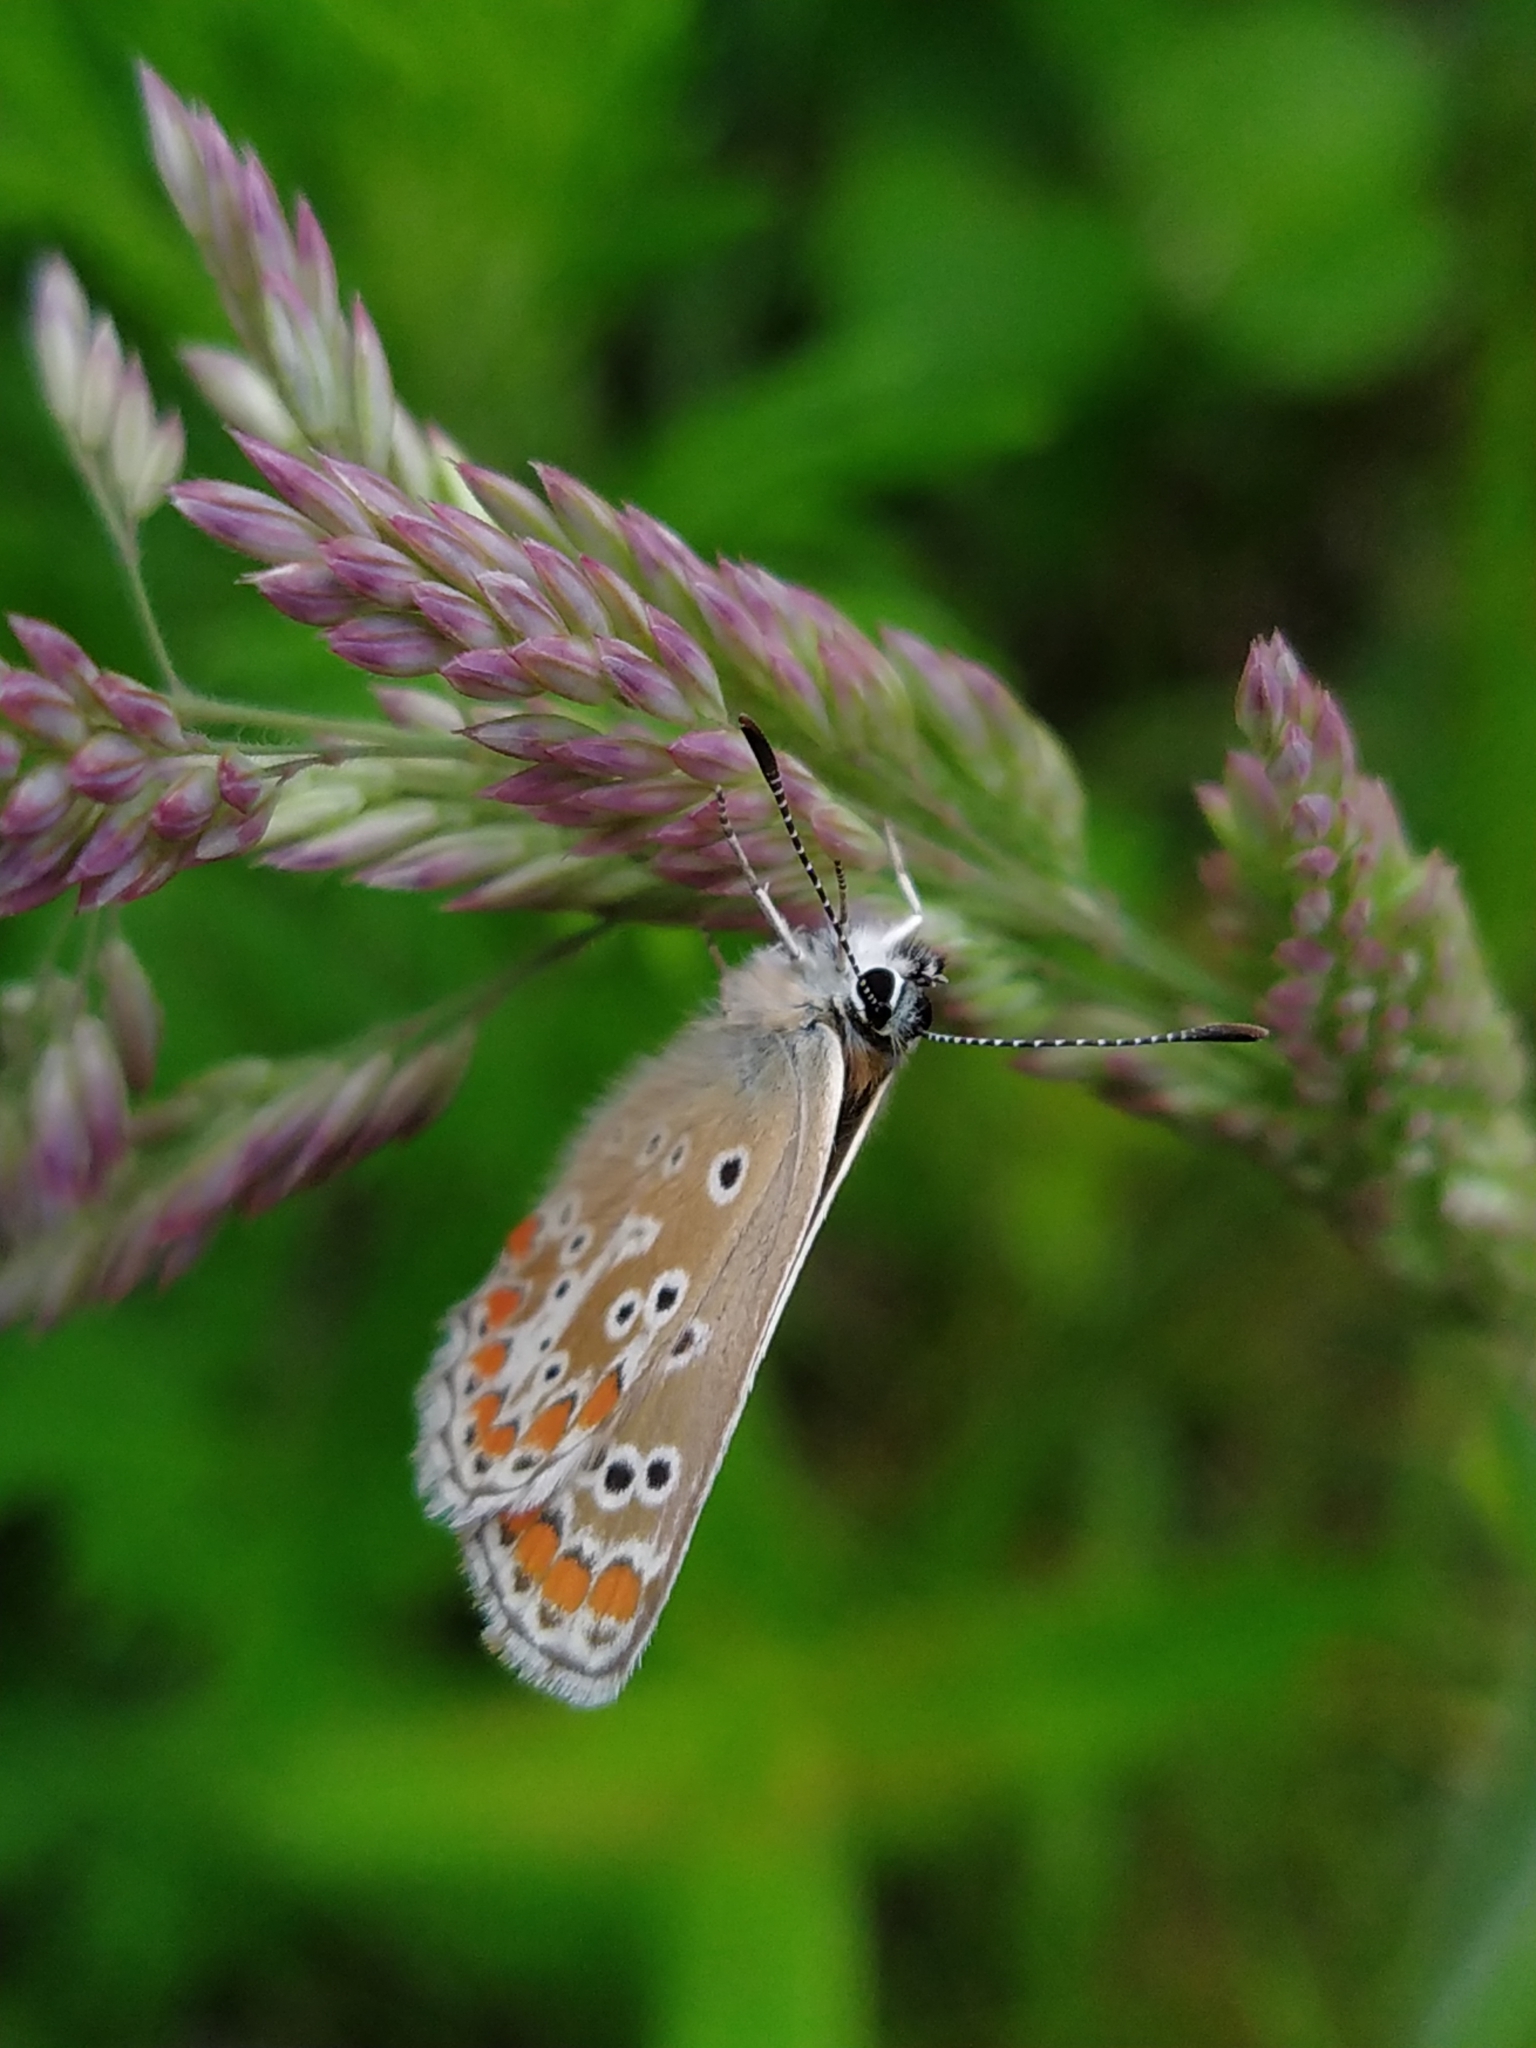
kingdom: Animalia
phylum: Arthropoda
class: Insecta
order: Lepidoptera
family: Lycaenidae
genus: Aricia
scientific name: Aricia agestis
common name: Brown argus
